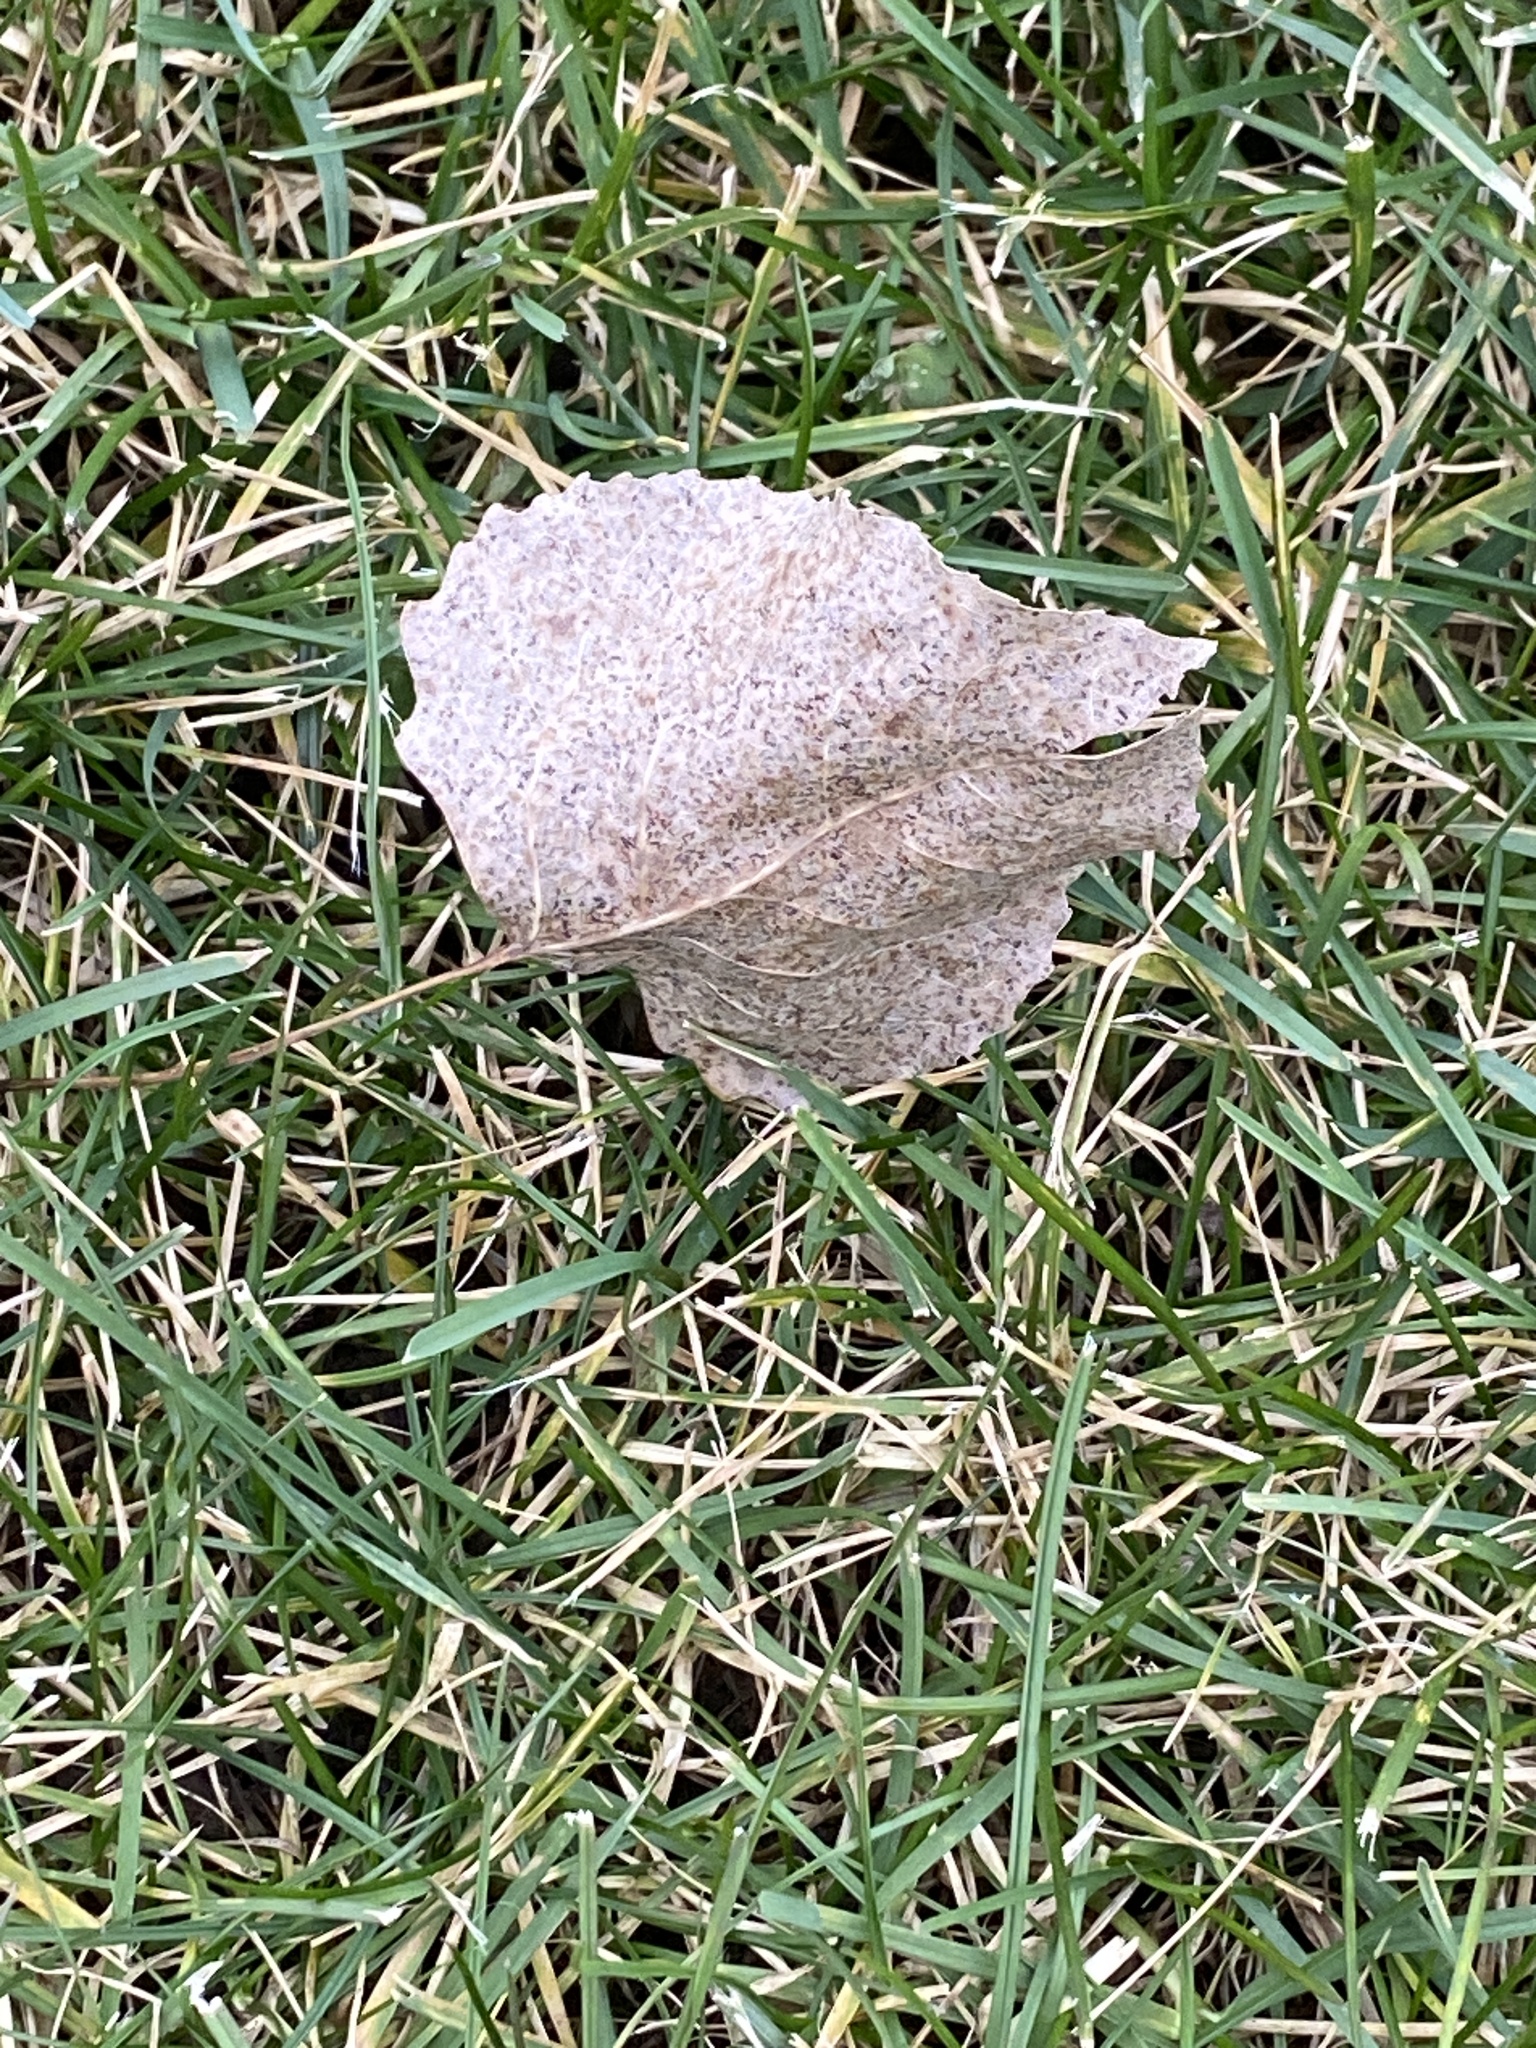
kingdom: Plantae
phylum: Tracheophyta
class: Magnoliopsida
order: Malpighiales
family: Salicaceae
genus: Populus
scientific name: Populus deltoides
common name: Eastern cottonwood
